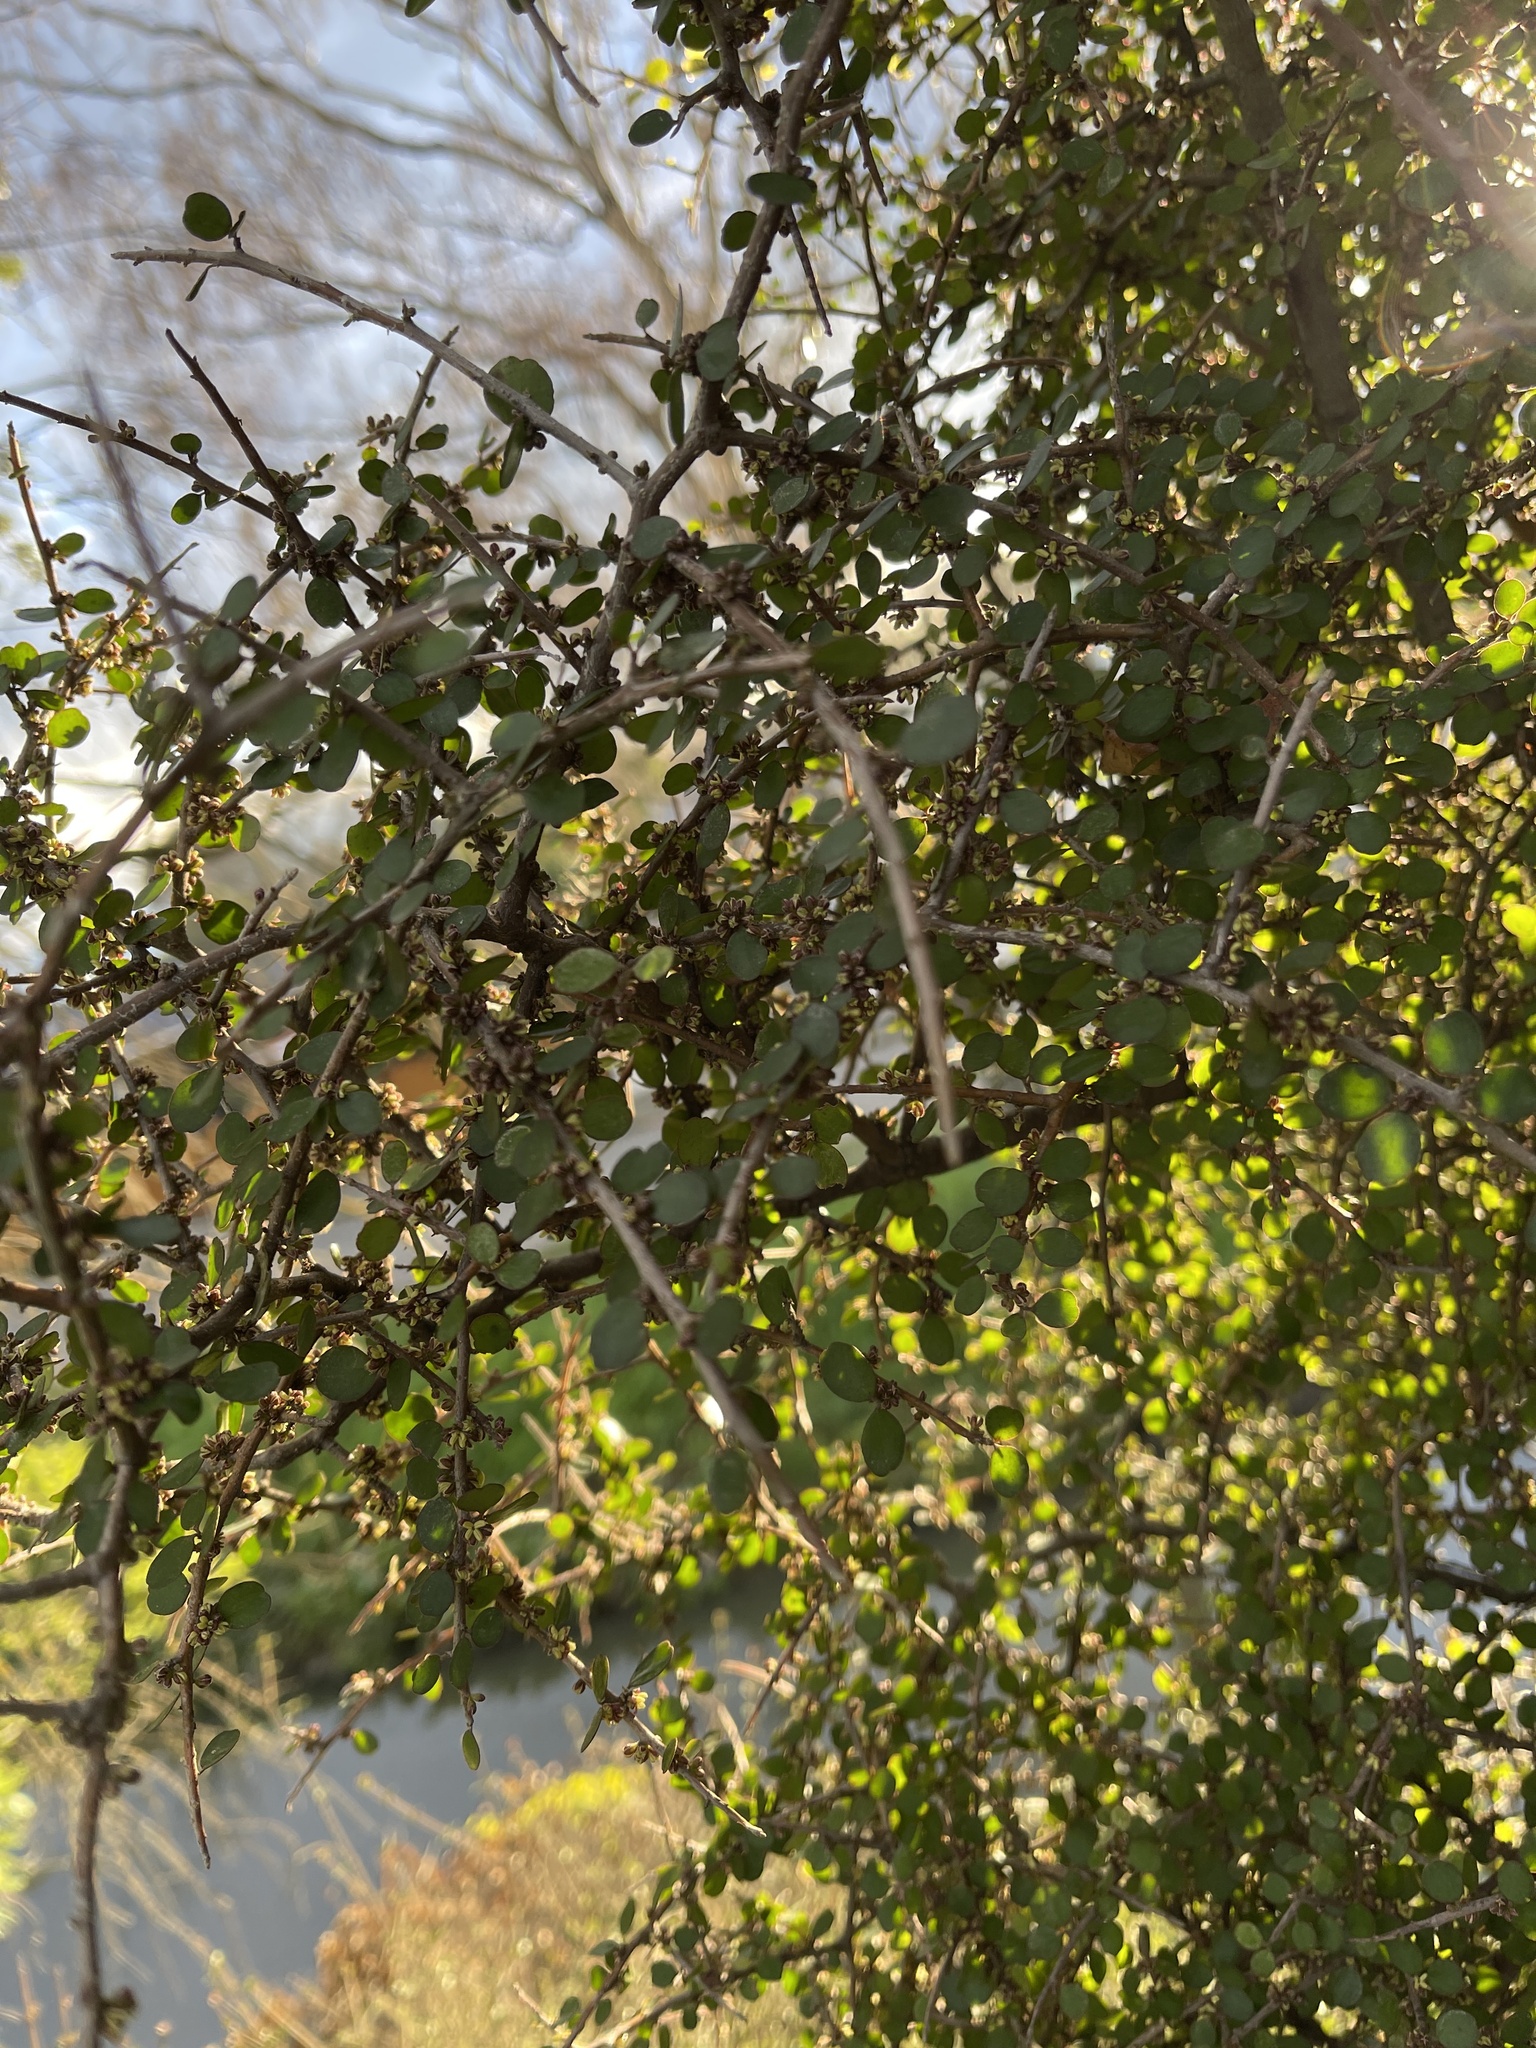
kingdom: Plantae
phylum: Tracheophyta
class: Magnoliopsida
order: Gentianales
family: Rubiaceae
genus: Coprosma
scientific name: Coprosma crassifolia
